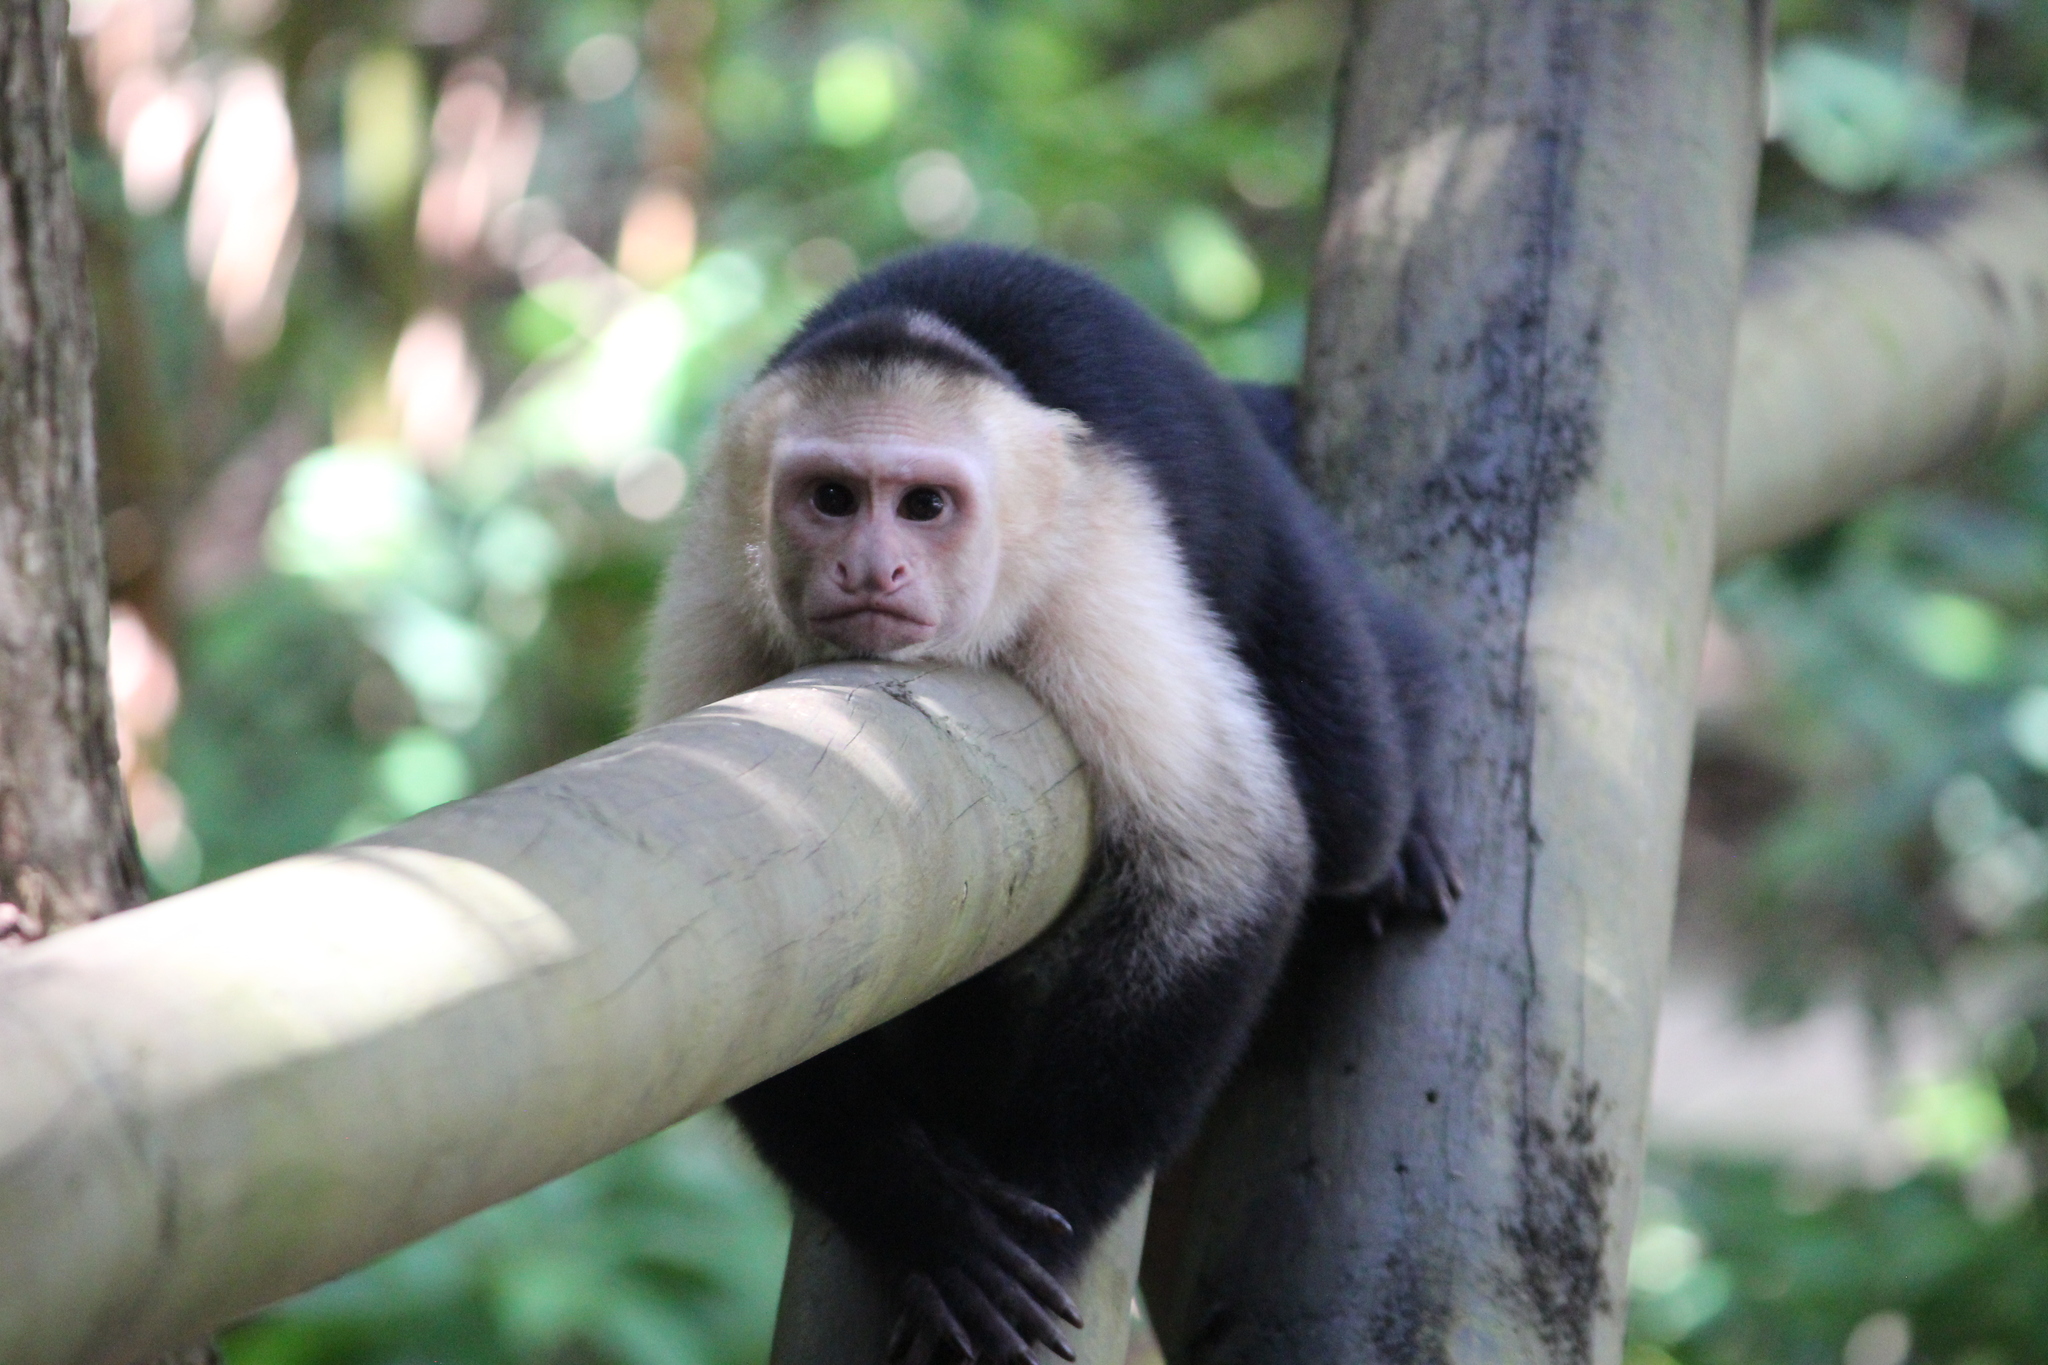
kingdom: Animalia
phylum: Chordata
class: Mammalia
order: Primates
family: Cebidae
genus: Cebus
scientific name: Cebus imitator
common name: Panamanian white-faced capuchin
